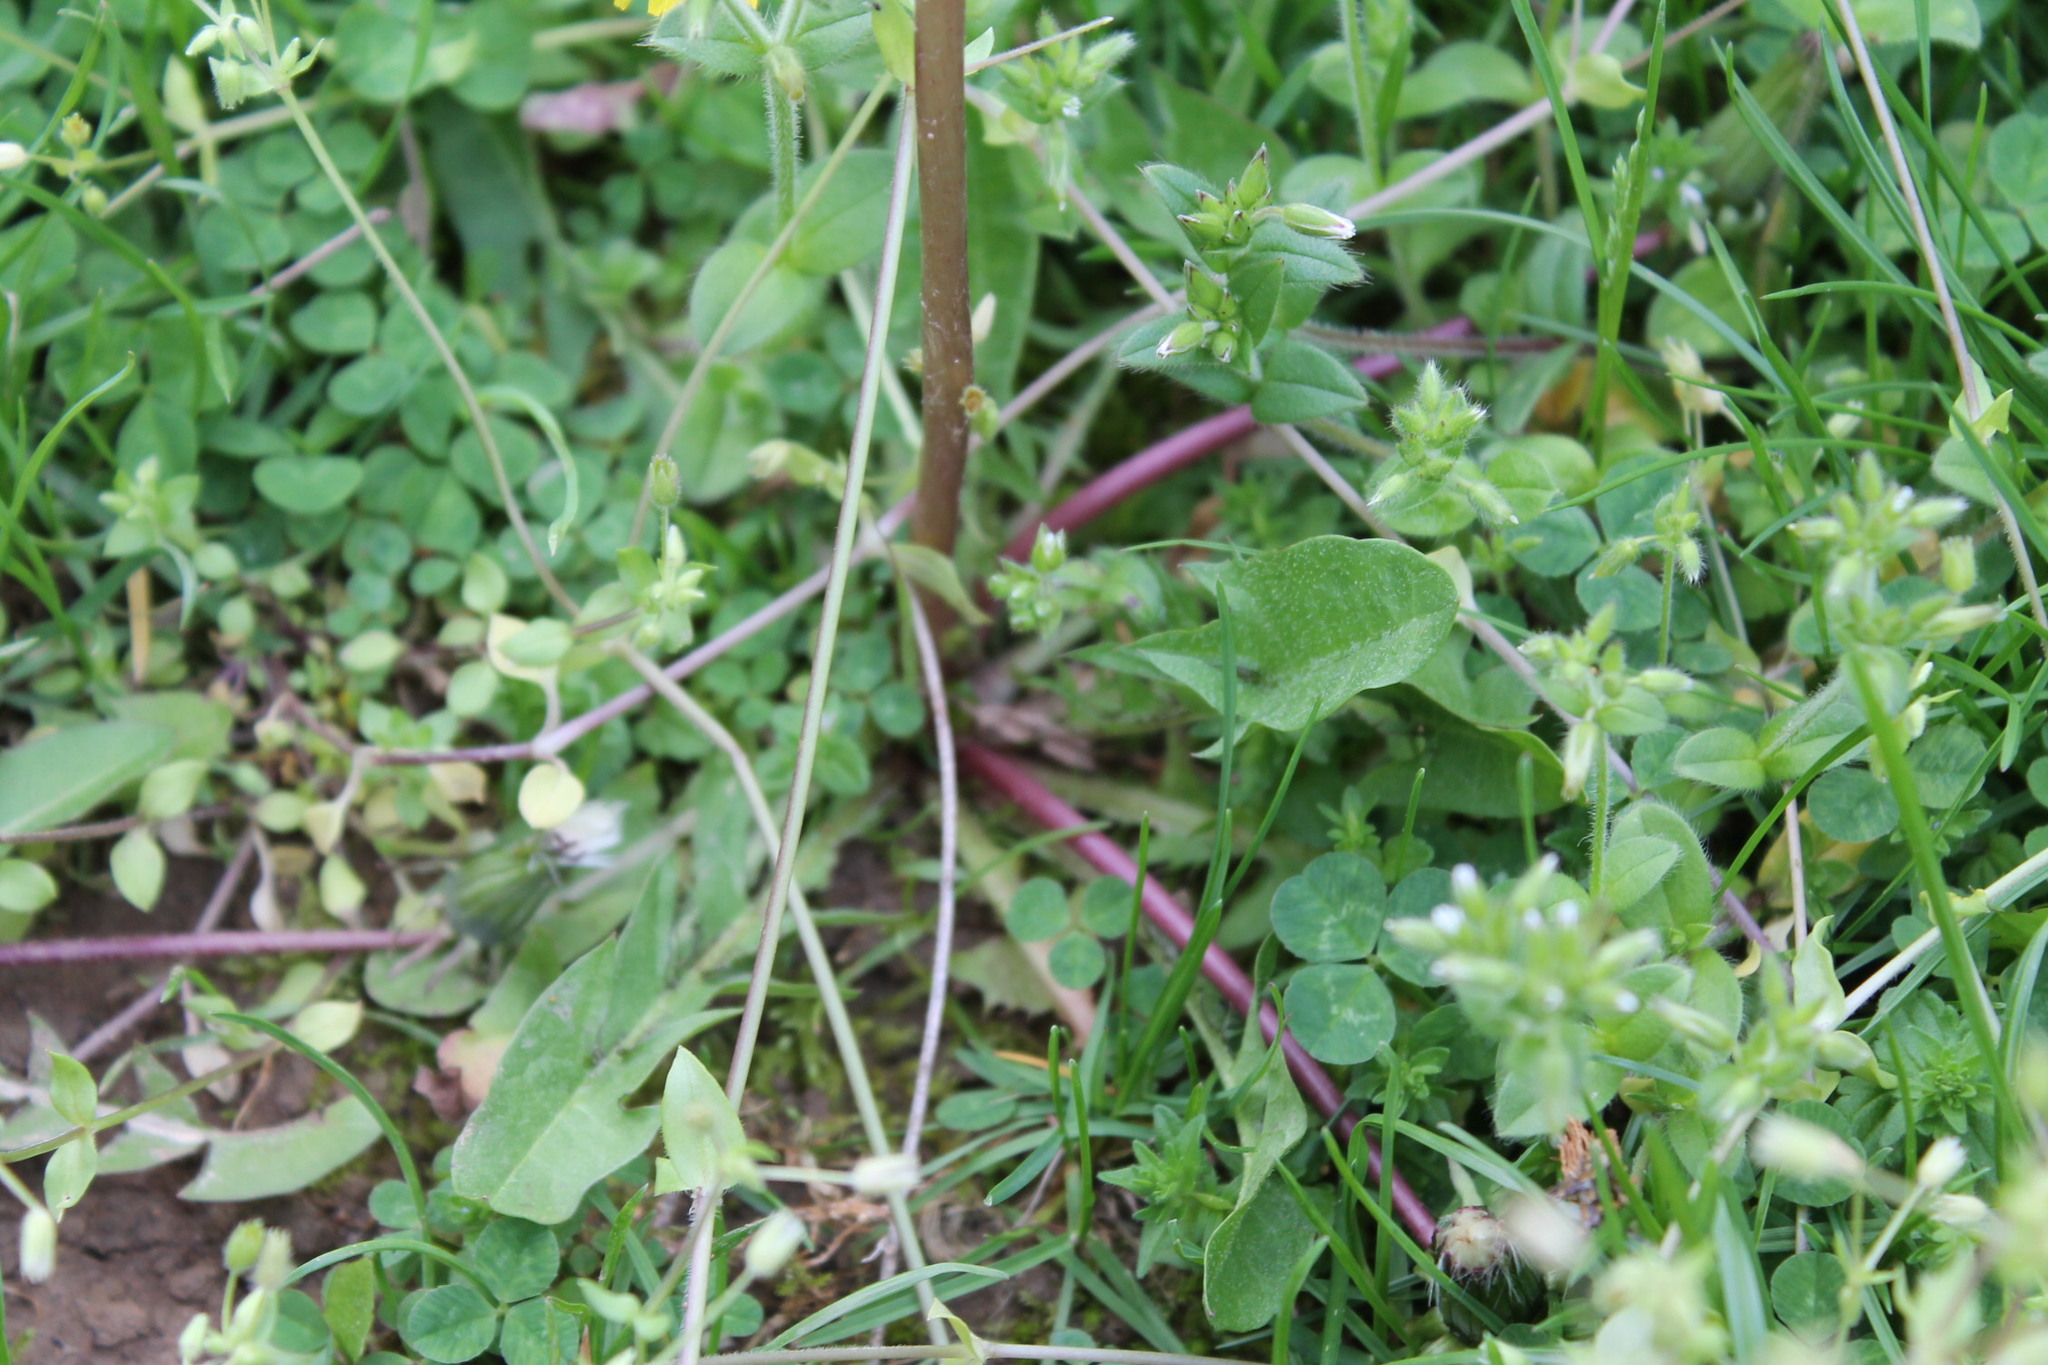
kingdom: Plantae
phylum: Tracheophyta
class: Magnoliopsida
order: Asterales
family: Asteraceae
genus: Taraxacum
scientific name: Taraxacum erythrospermum
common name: Rock dandelion
